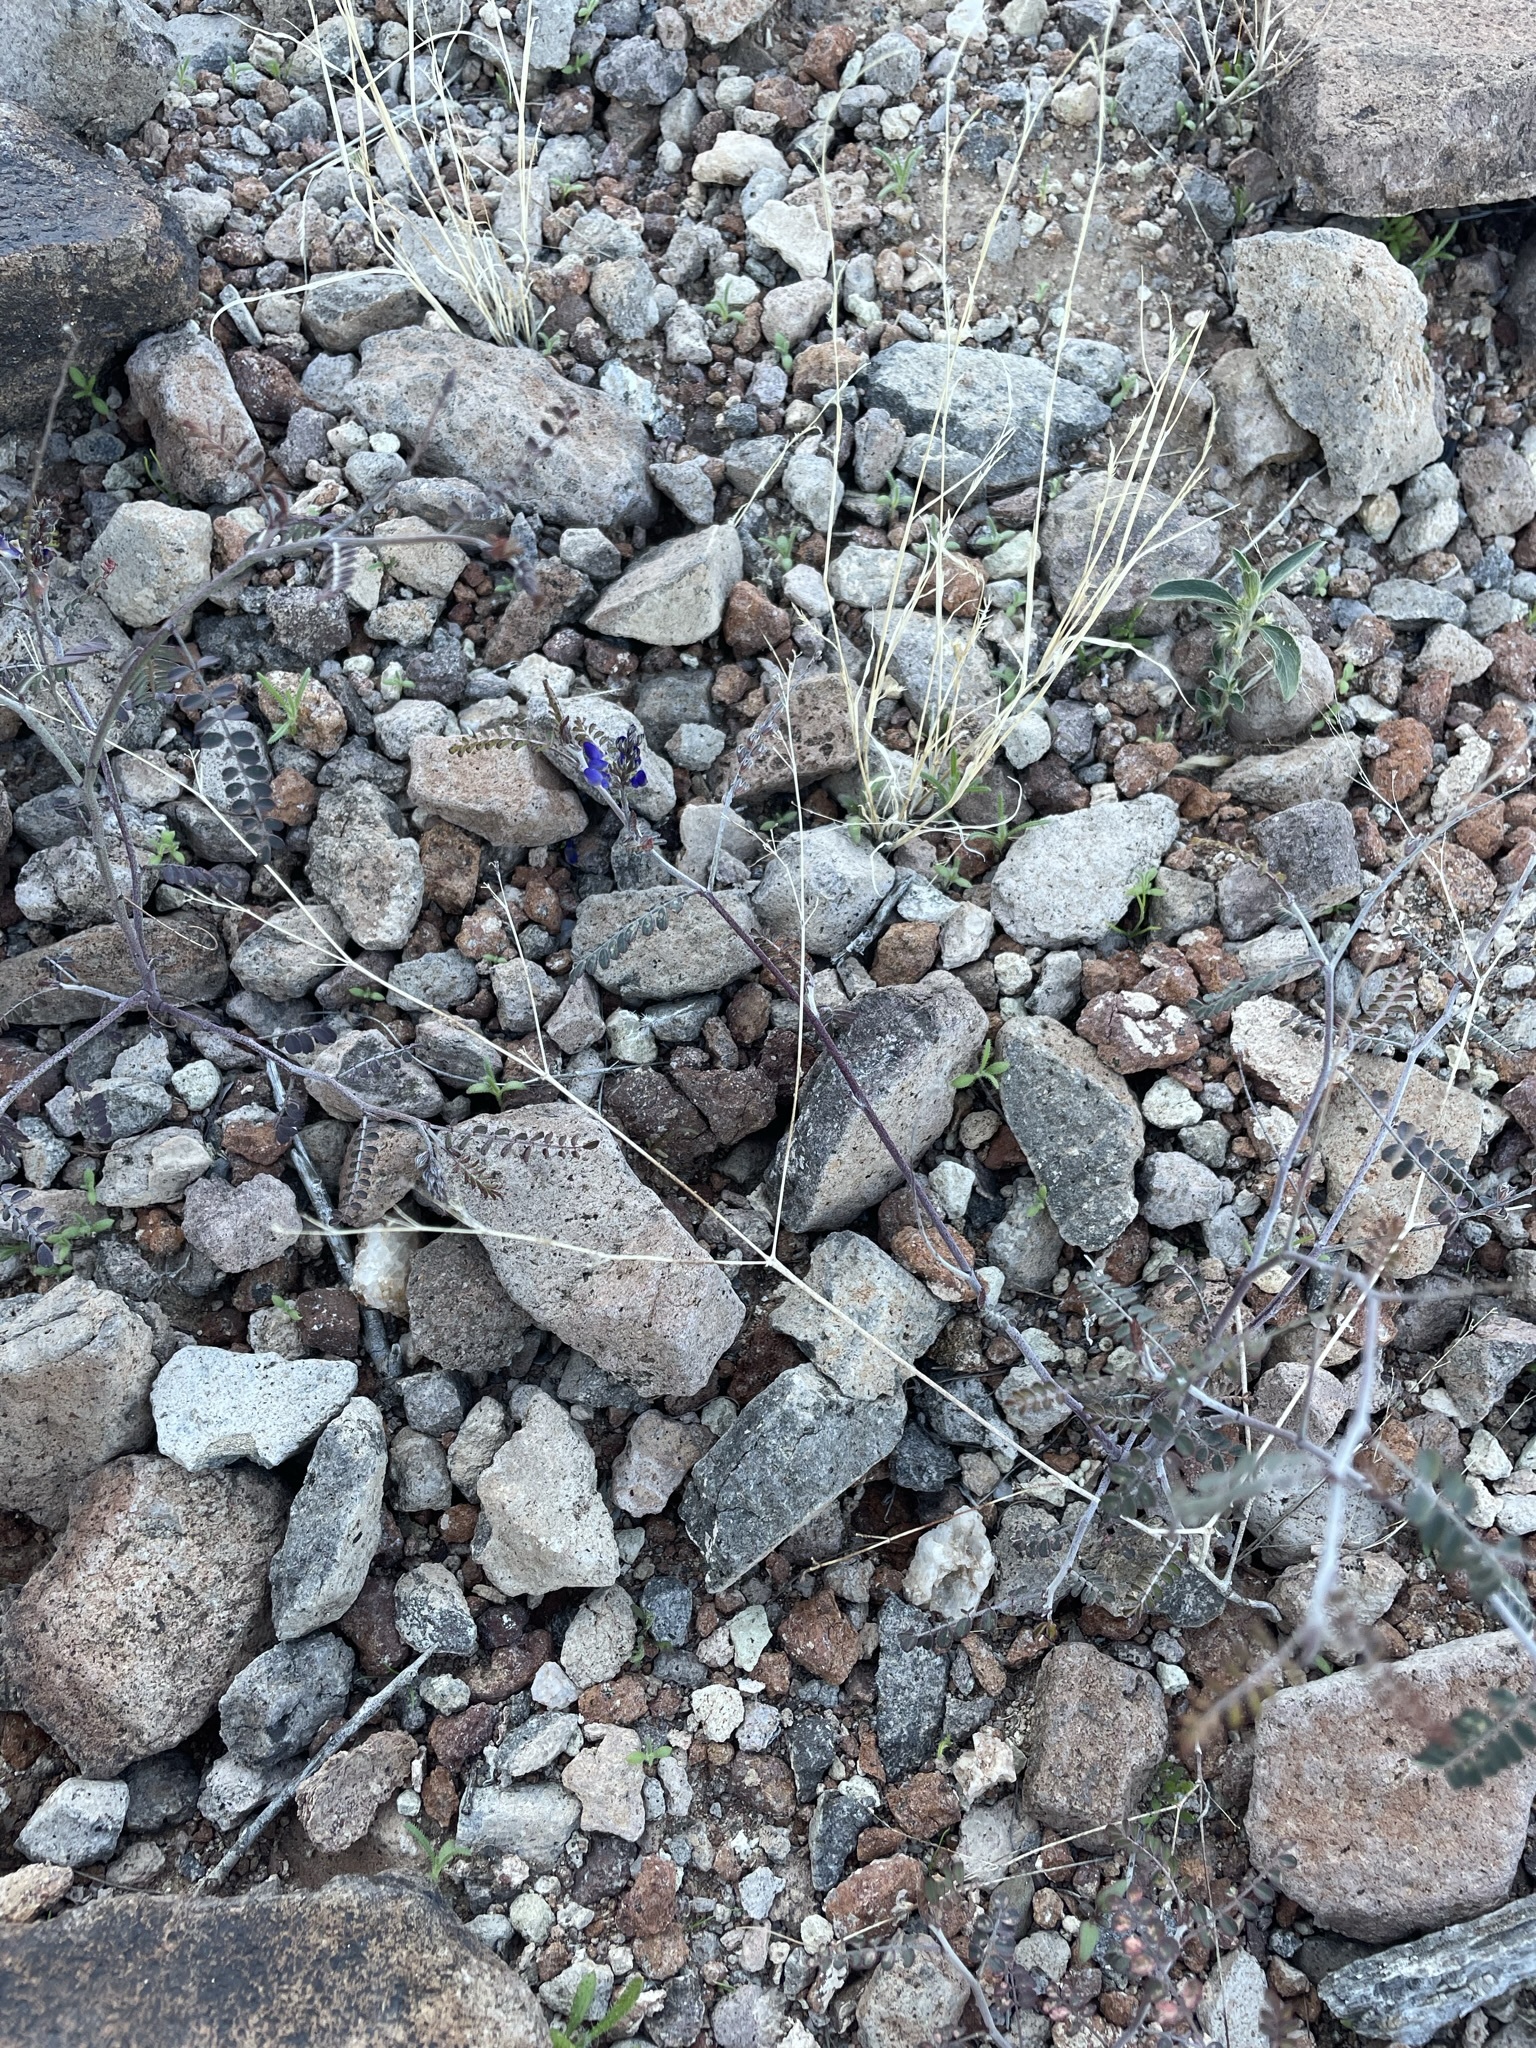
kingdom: Plantae
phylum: Tracheophyta
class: Magnoliopsida
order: Fabales
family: Fabaceae
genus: Marina
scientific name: Marina parryi
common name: Parry's marina
